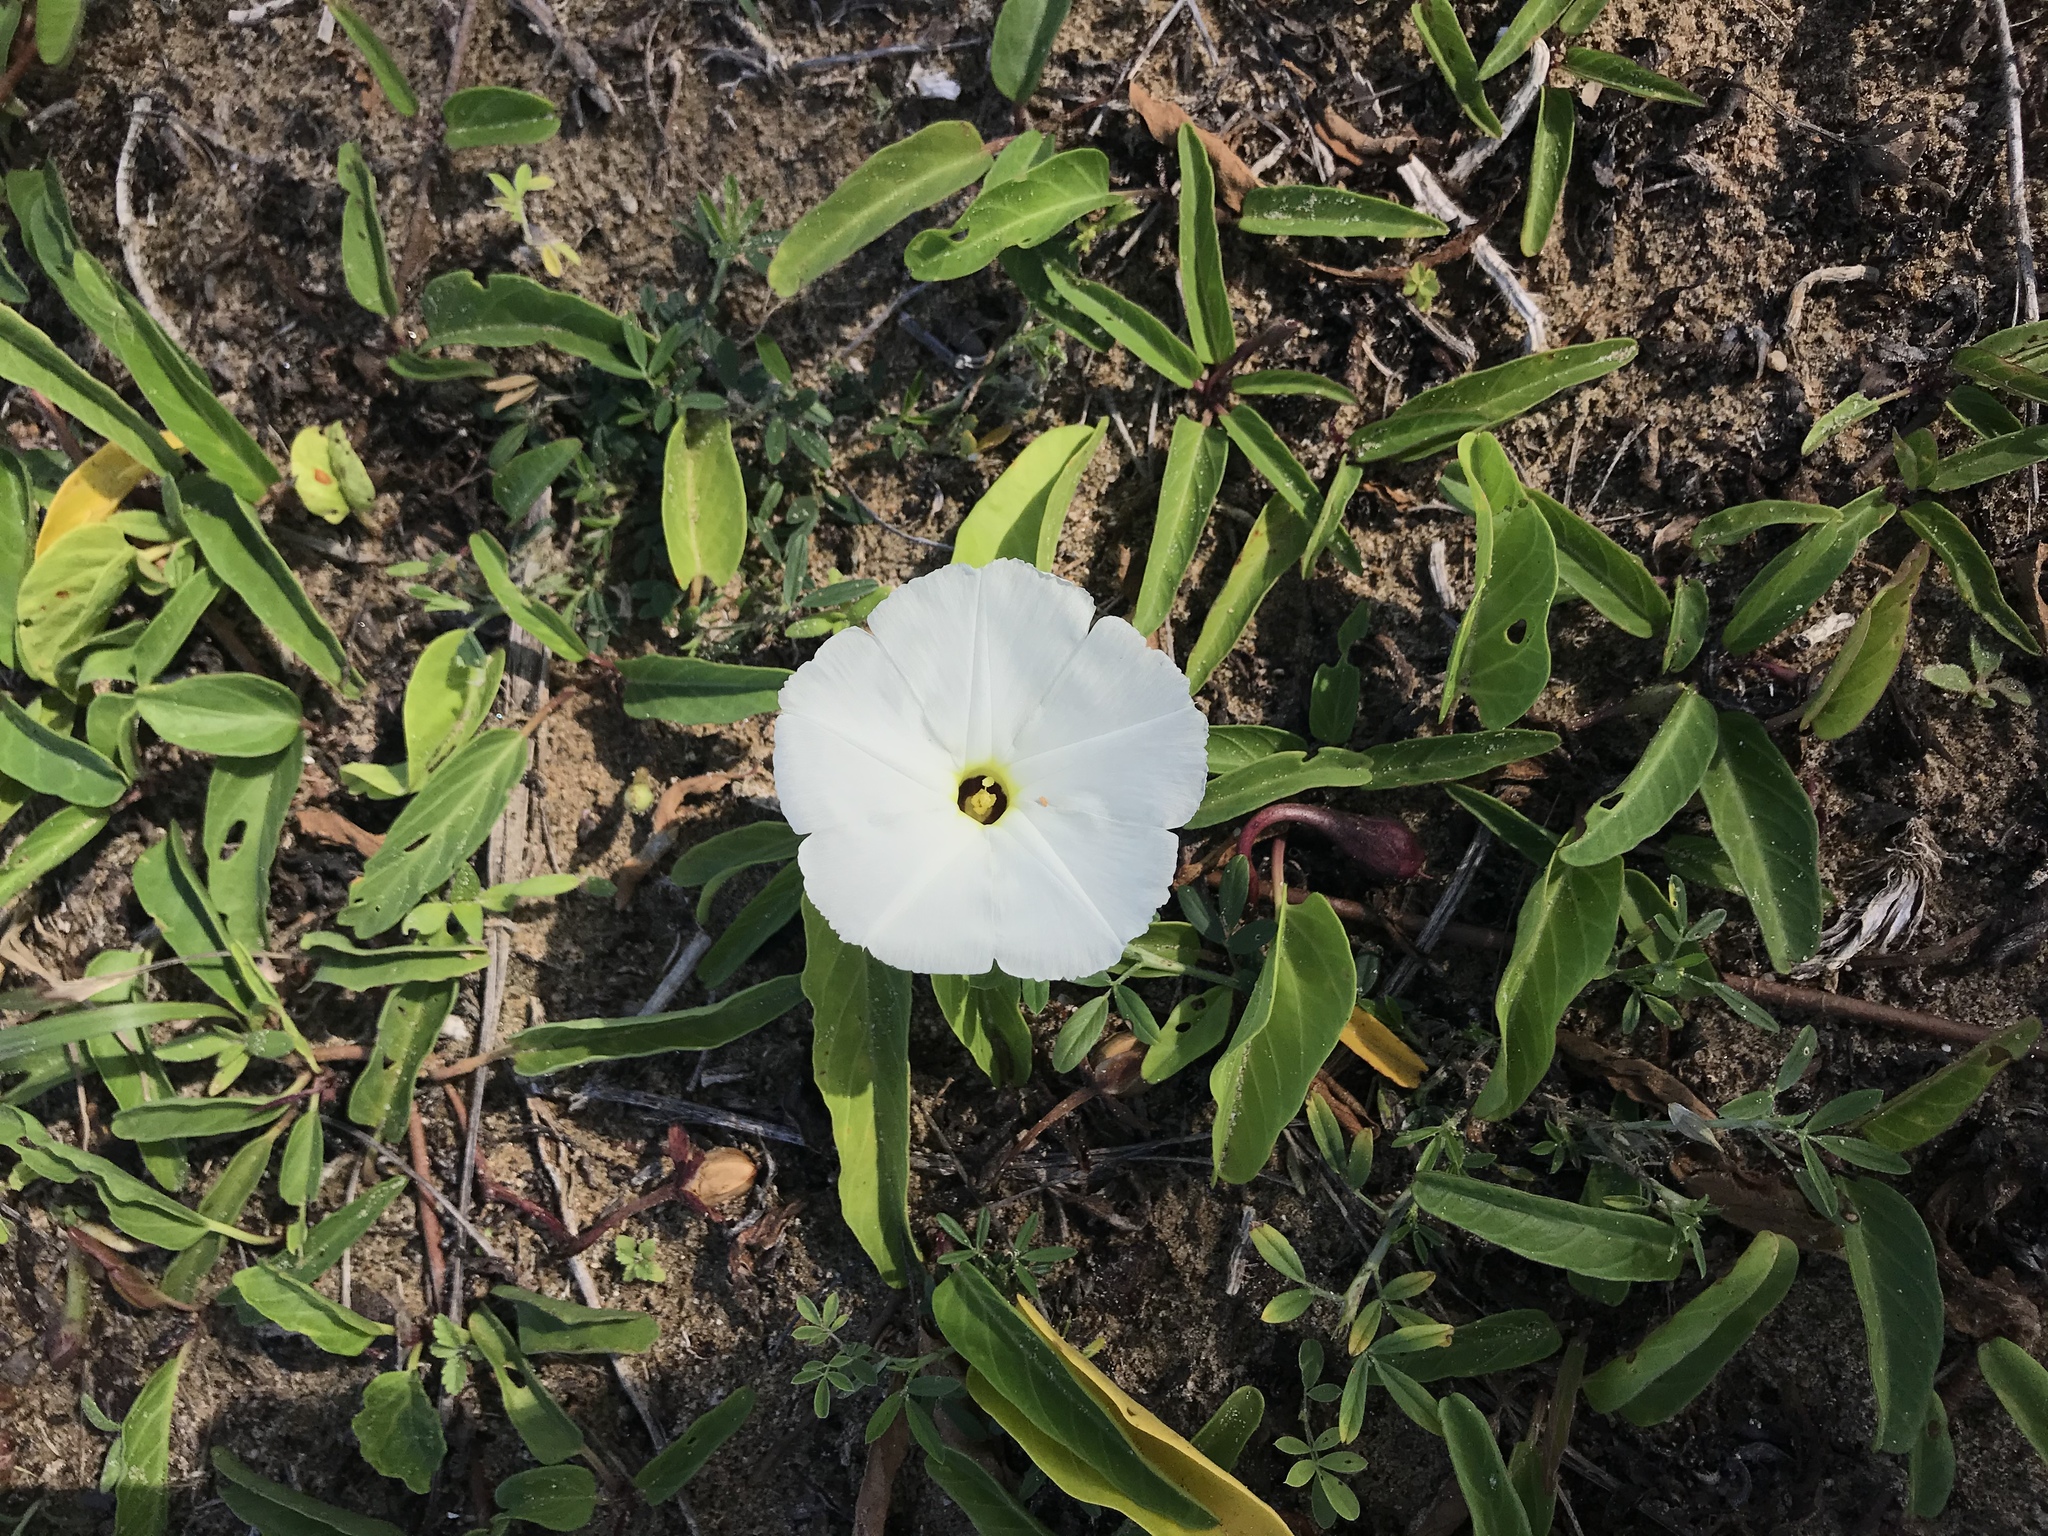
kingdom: Plantae
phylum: Tracheophyta
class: Magnoliopsida
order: Solanales
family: Convolvulaceae
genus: Ipomoea
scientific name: Ipomoea imperati
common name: Fiddle-leaf morning-glory
